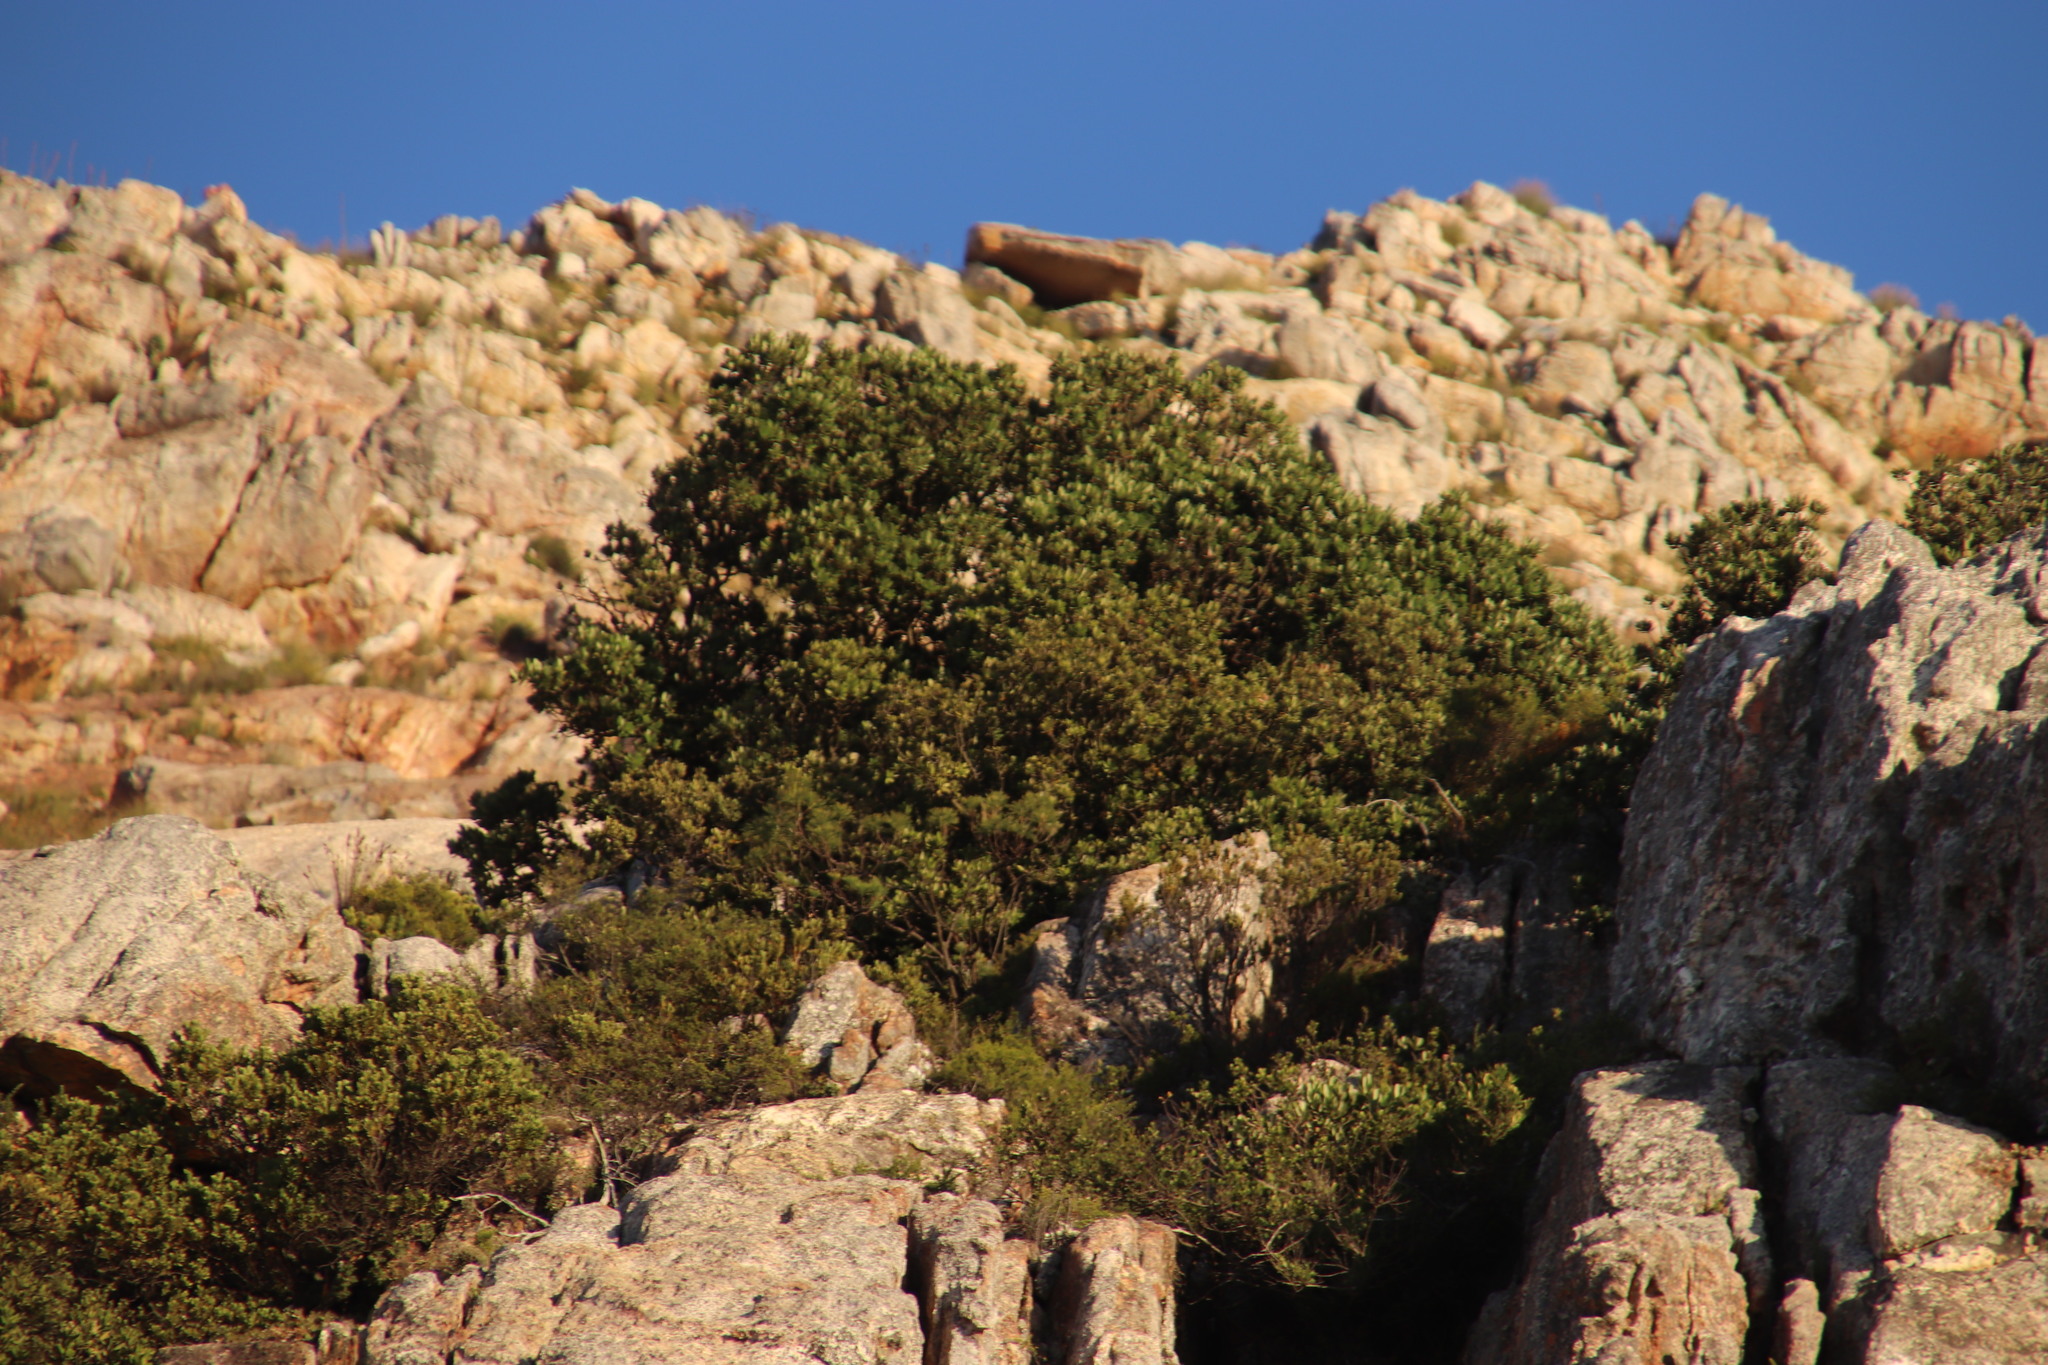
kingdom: Plantae
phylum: Tracheophyta
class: Magnoliopsida
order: Sapindales
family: Anacardiaceae
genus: Heeria
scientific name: Heeria argentea
